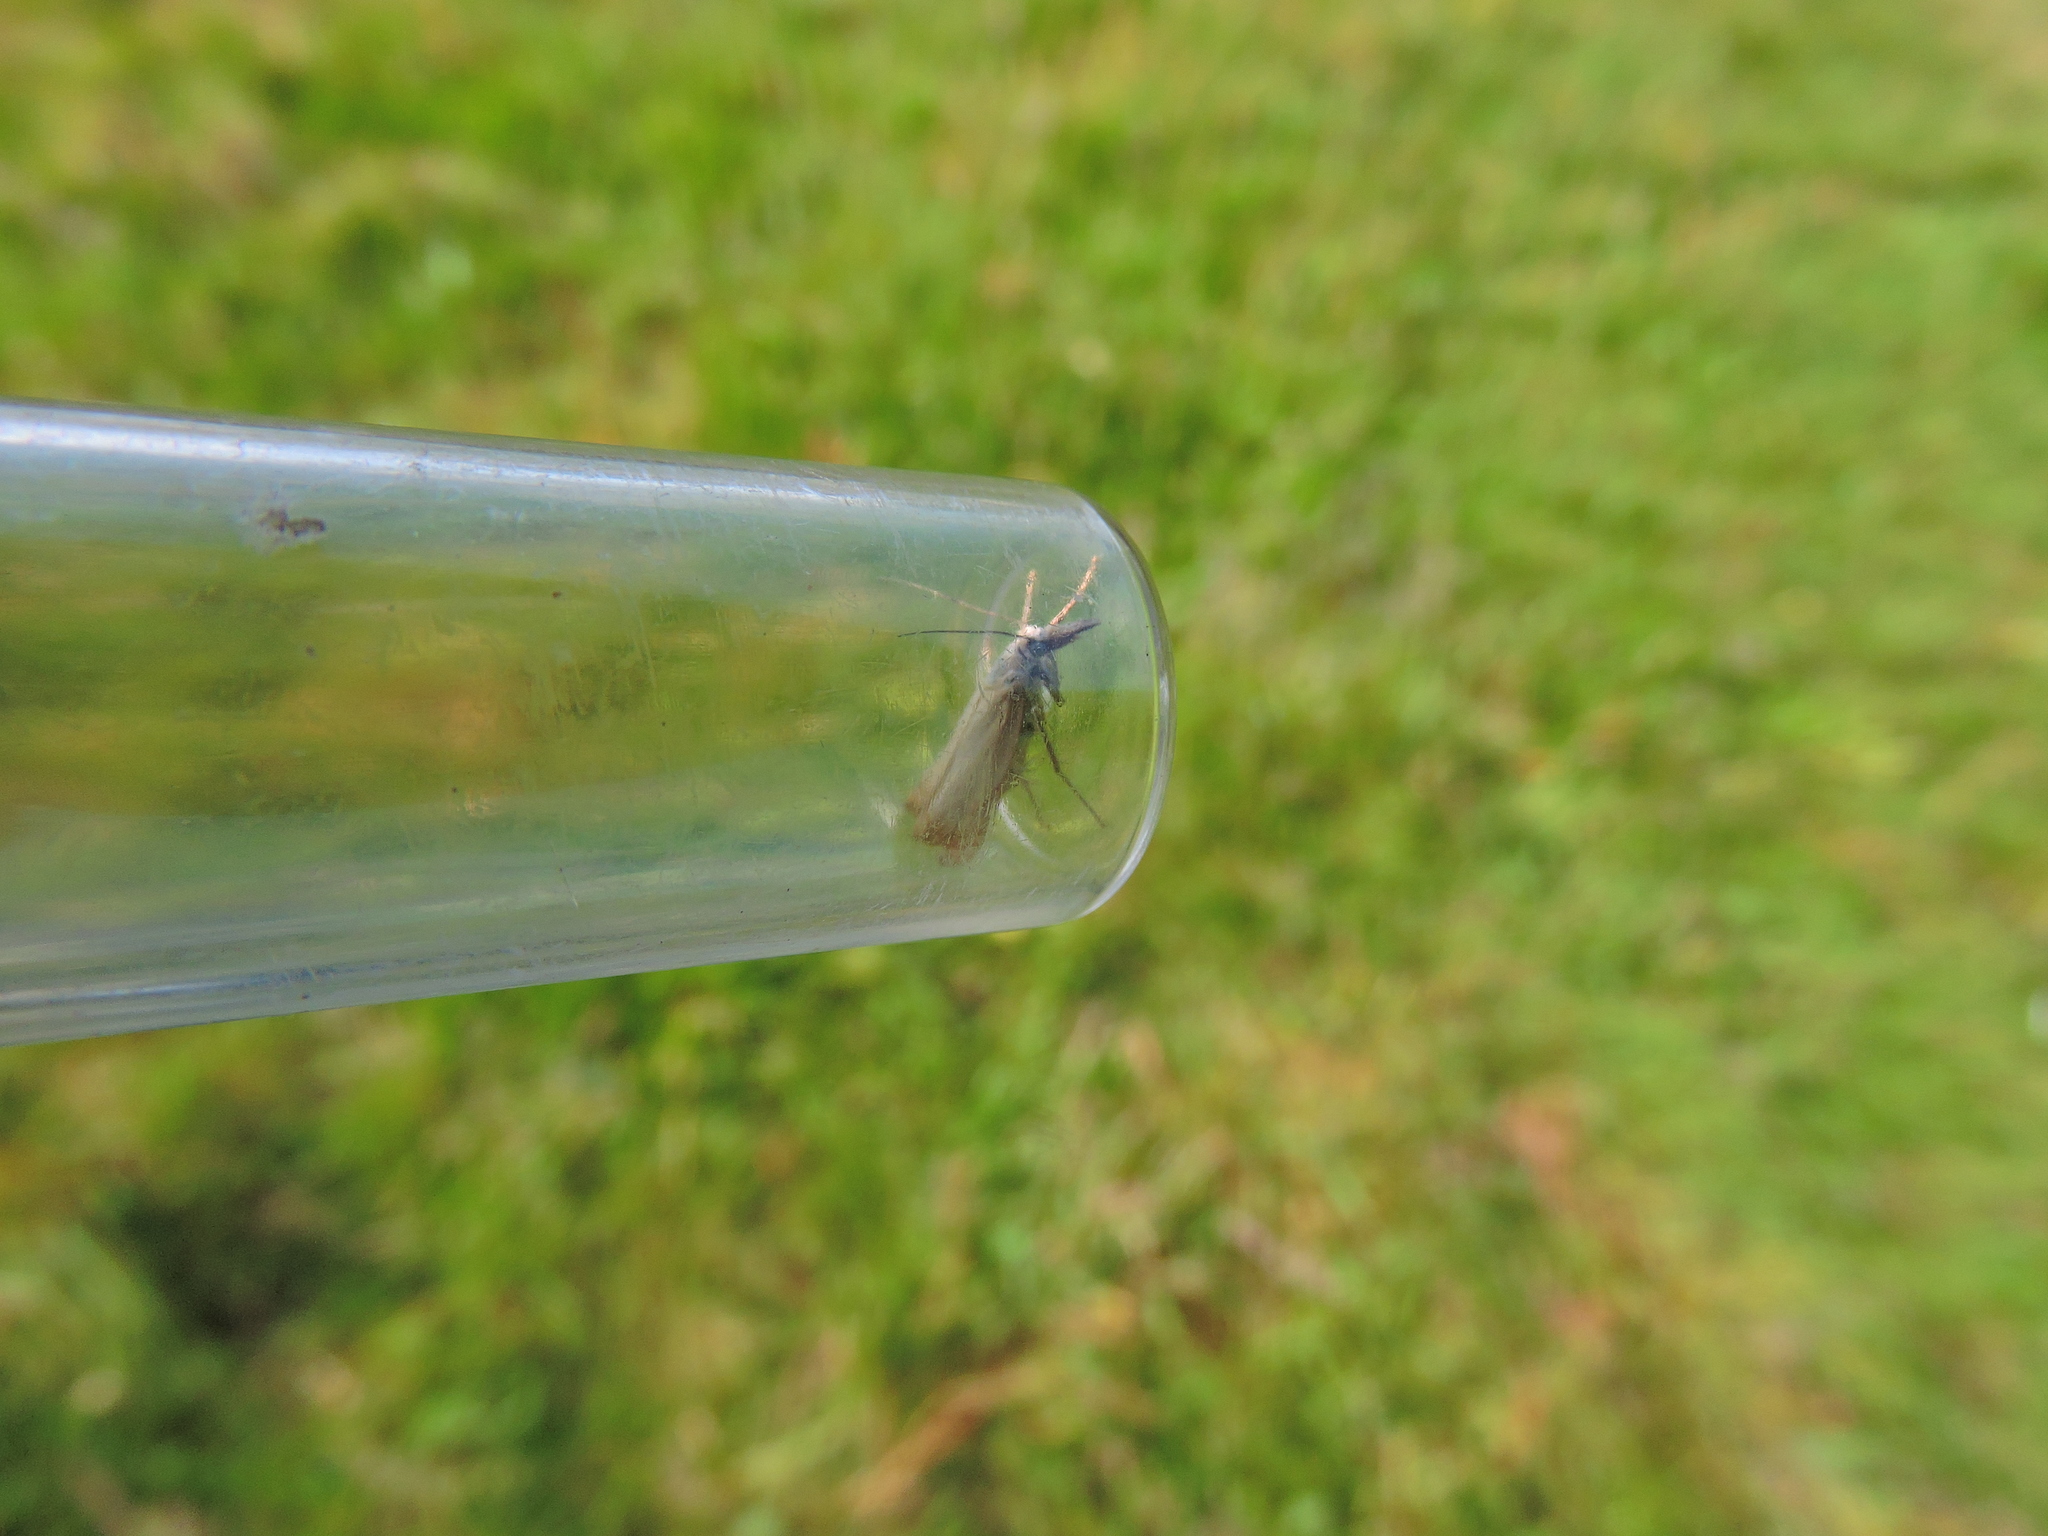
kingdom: Animalia
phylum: Arthropoda
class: Insecta
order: Lepidoptera
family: Crambidae
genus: Chrysoteuchia
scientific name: Chrysoteuchia culmella
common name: Garden grass-veneer
